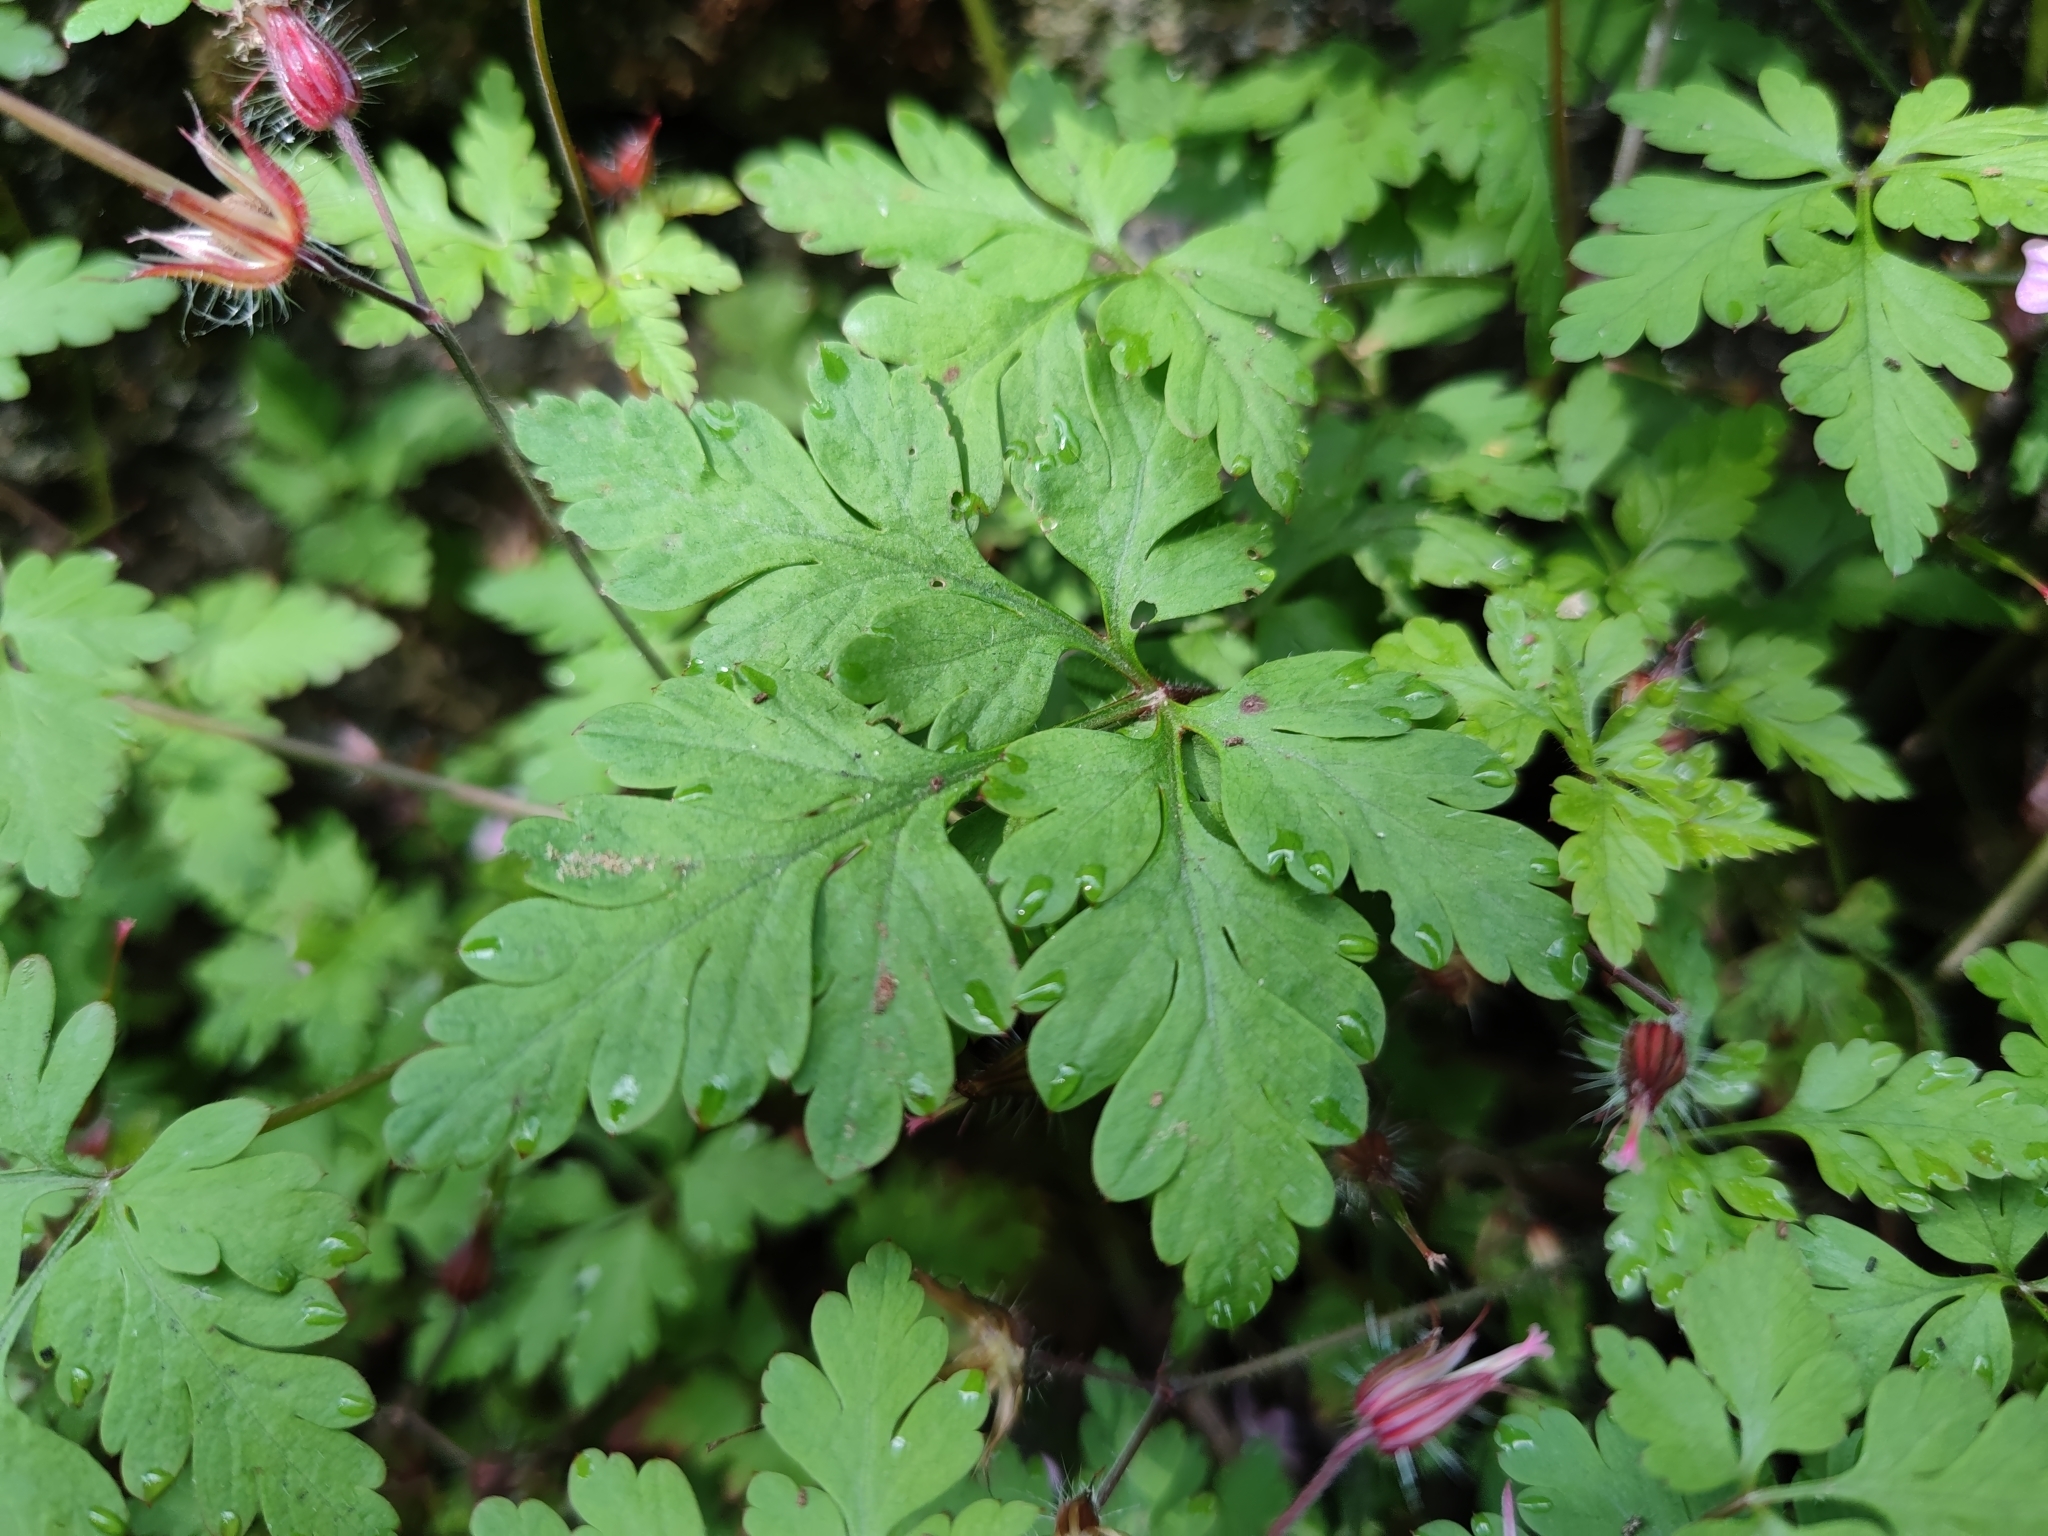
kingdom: Plantae
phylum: Tracheophyta
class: Magnoliopsida
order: Geraniales
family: Geraniaceae
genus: Geranium
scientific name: Geranium robertianum
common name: Herb-robert
